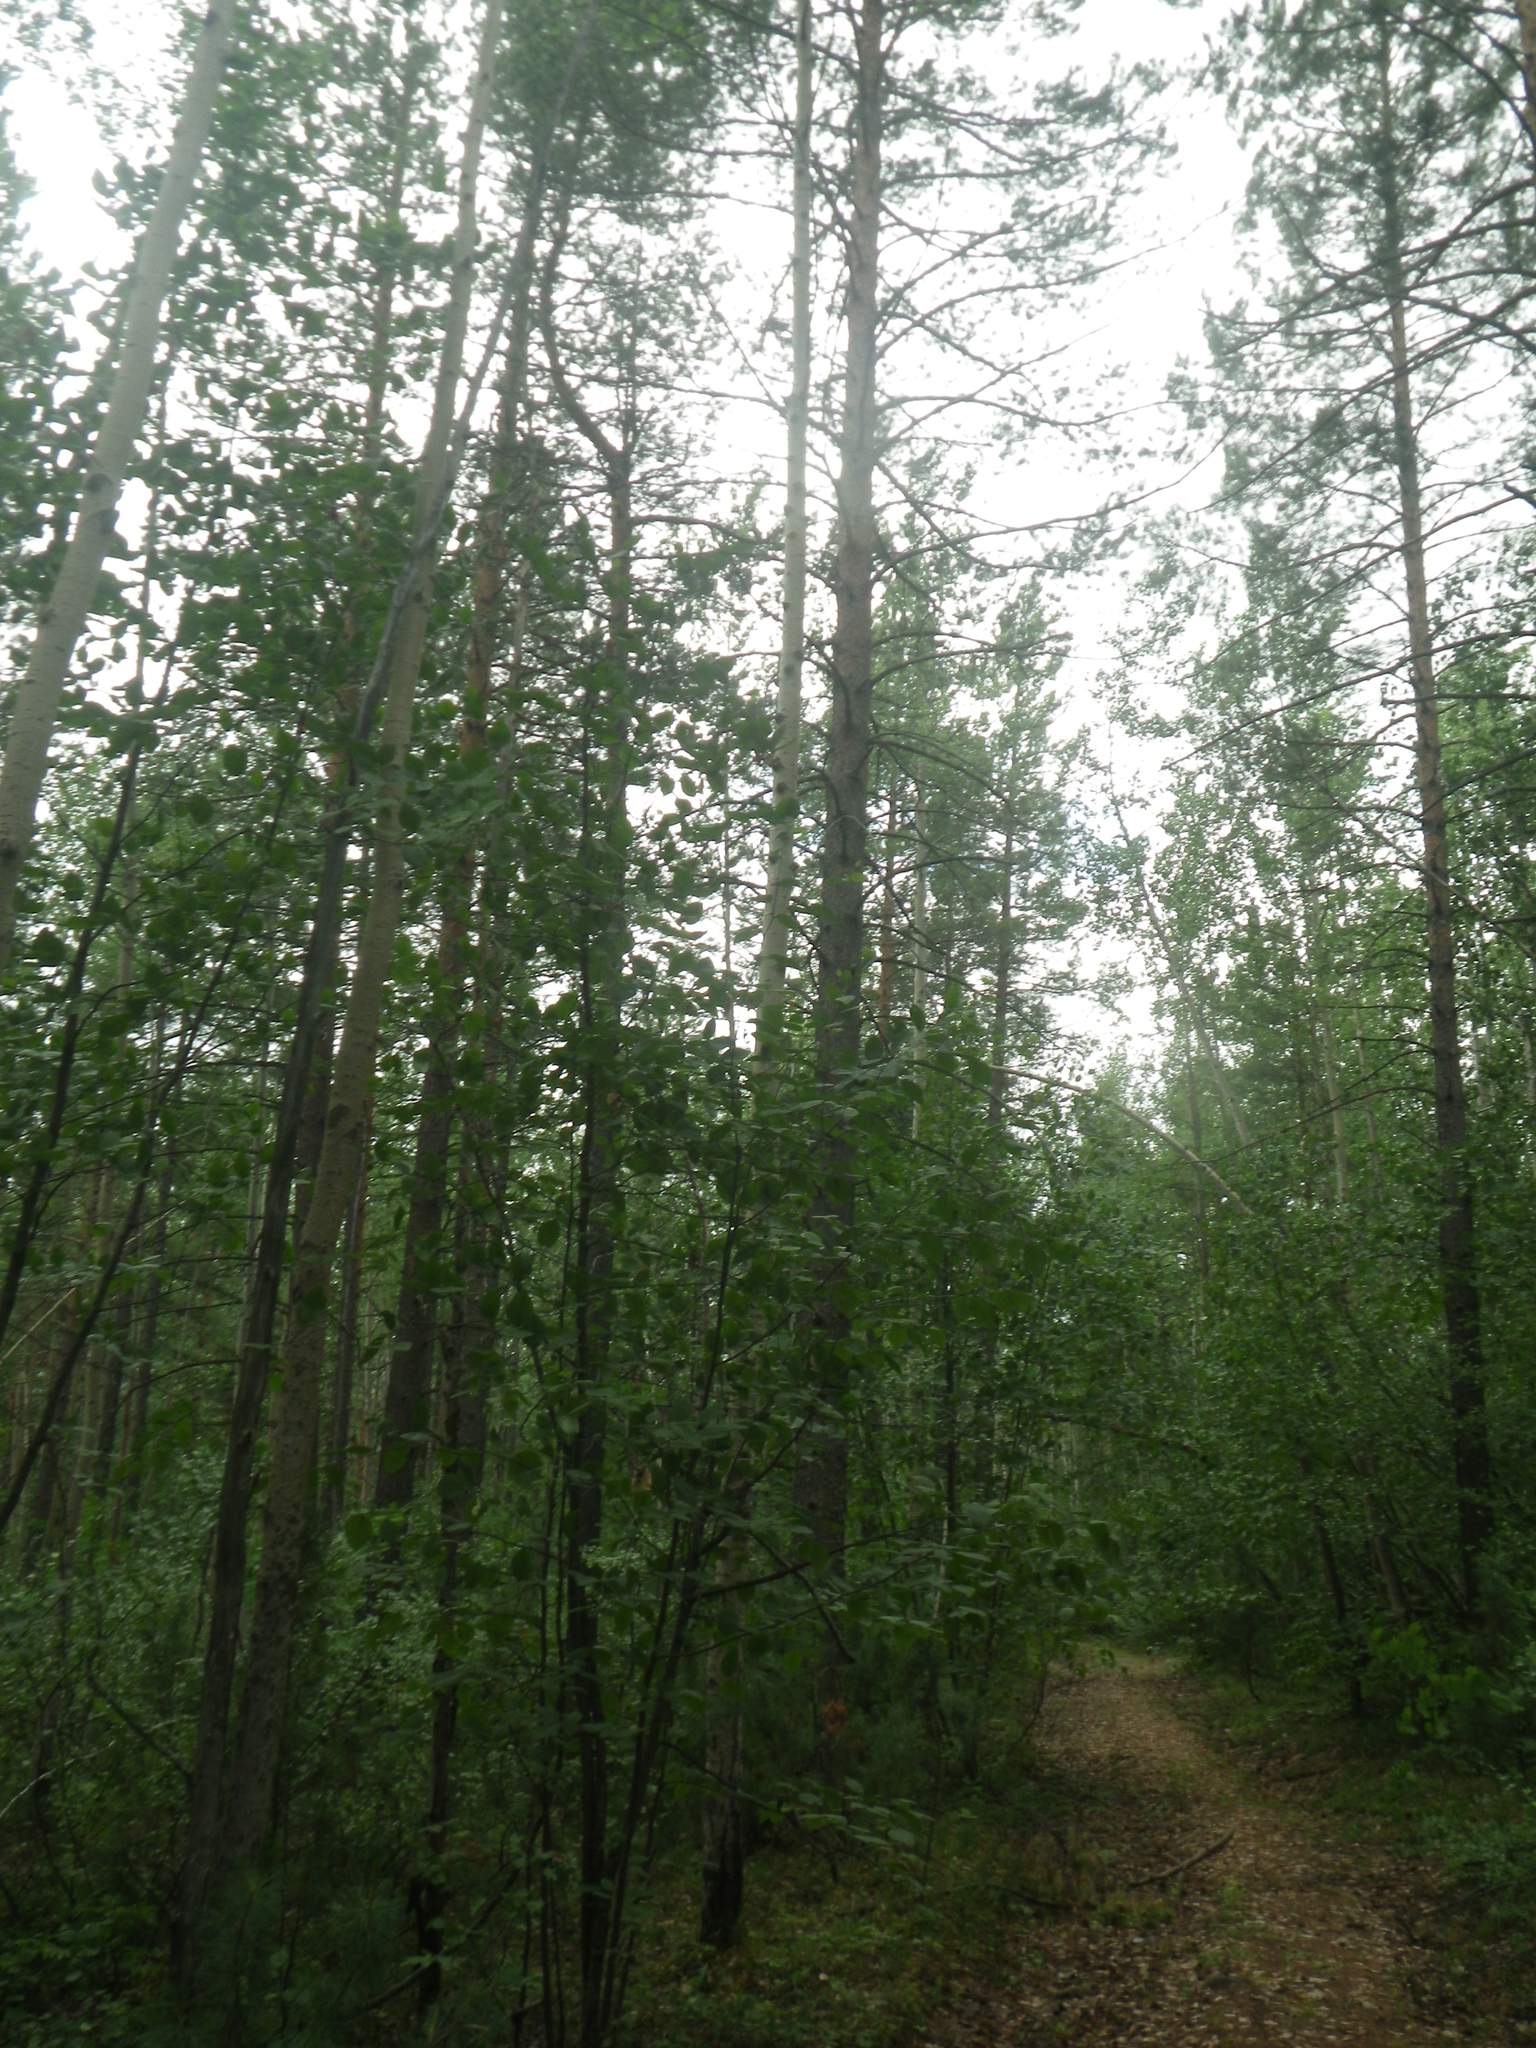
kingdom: Plantae
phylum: Tracheophyta
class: Pinopsida
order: Pinales
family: Pinaceae
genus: Pinus
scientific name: Pinus sylvestris
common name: Scots pine
